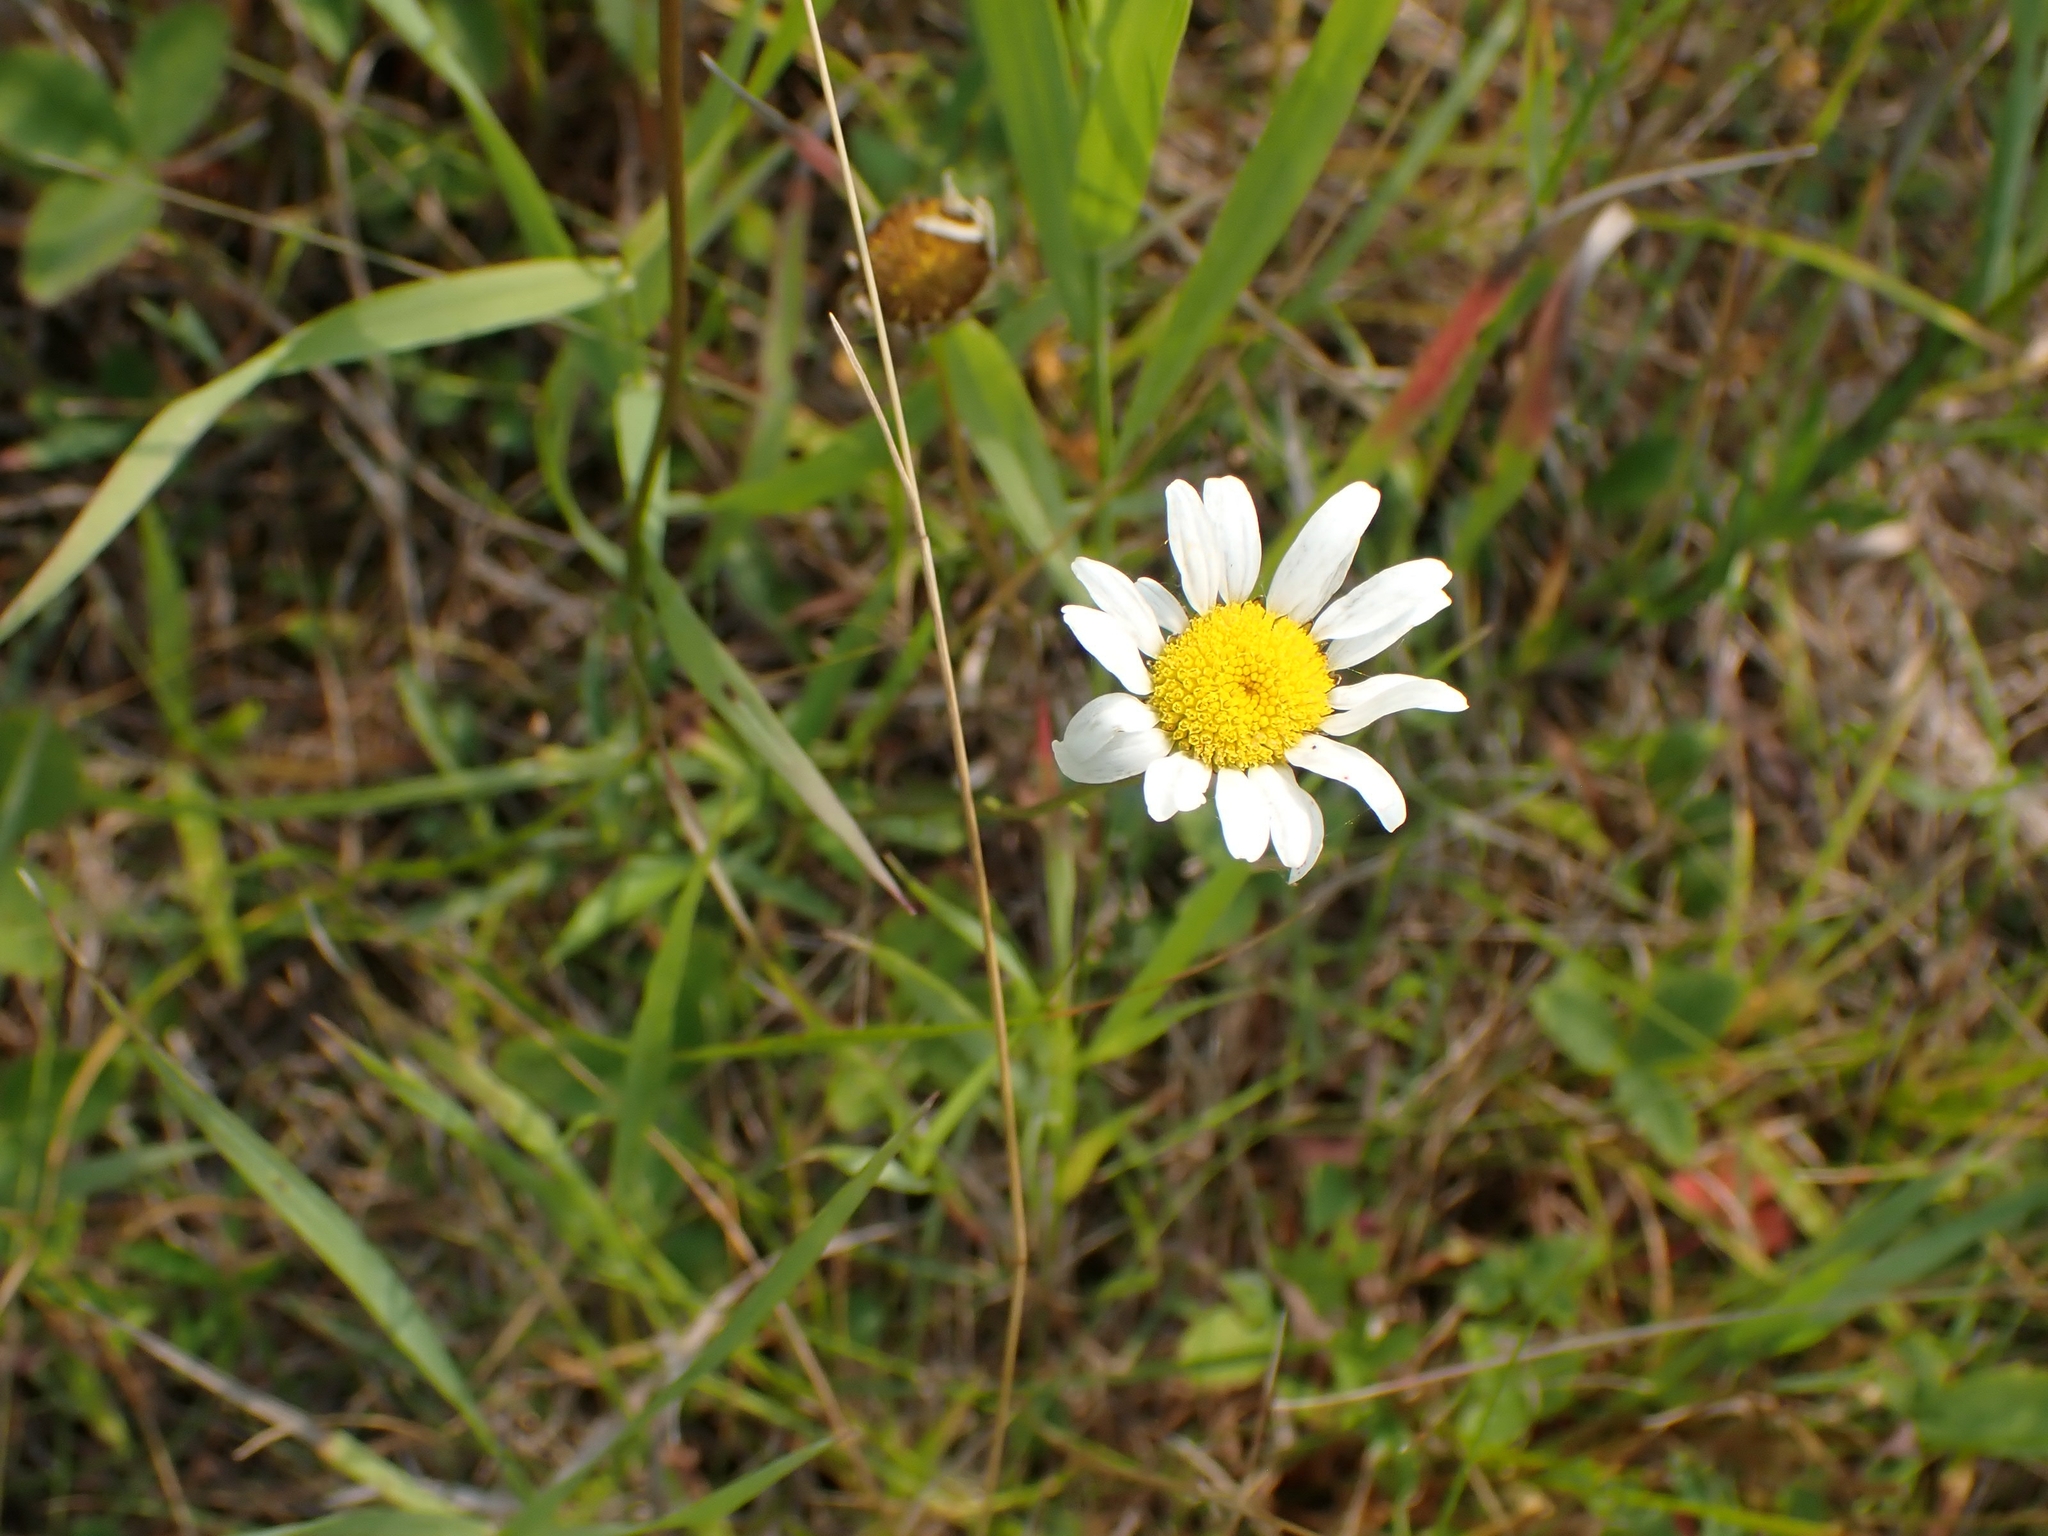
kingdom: Plantae
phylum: Tracheophyta
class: Magnoliopsida
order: Asterales
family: Asteraceae
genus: Leucanthemum
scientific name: Leucanthemum vulgare
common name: Oxeye daisy
